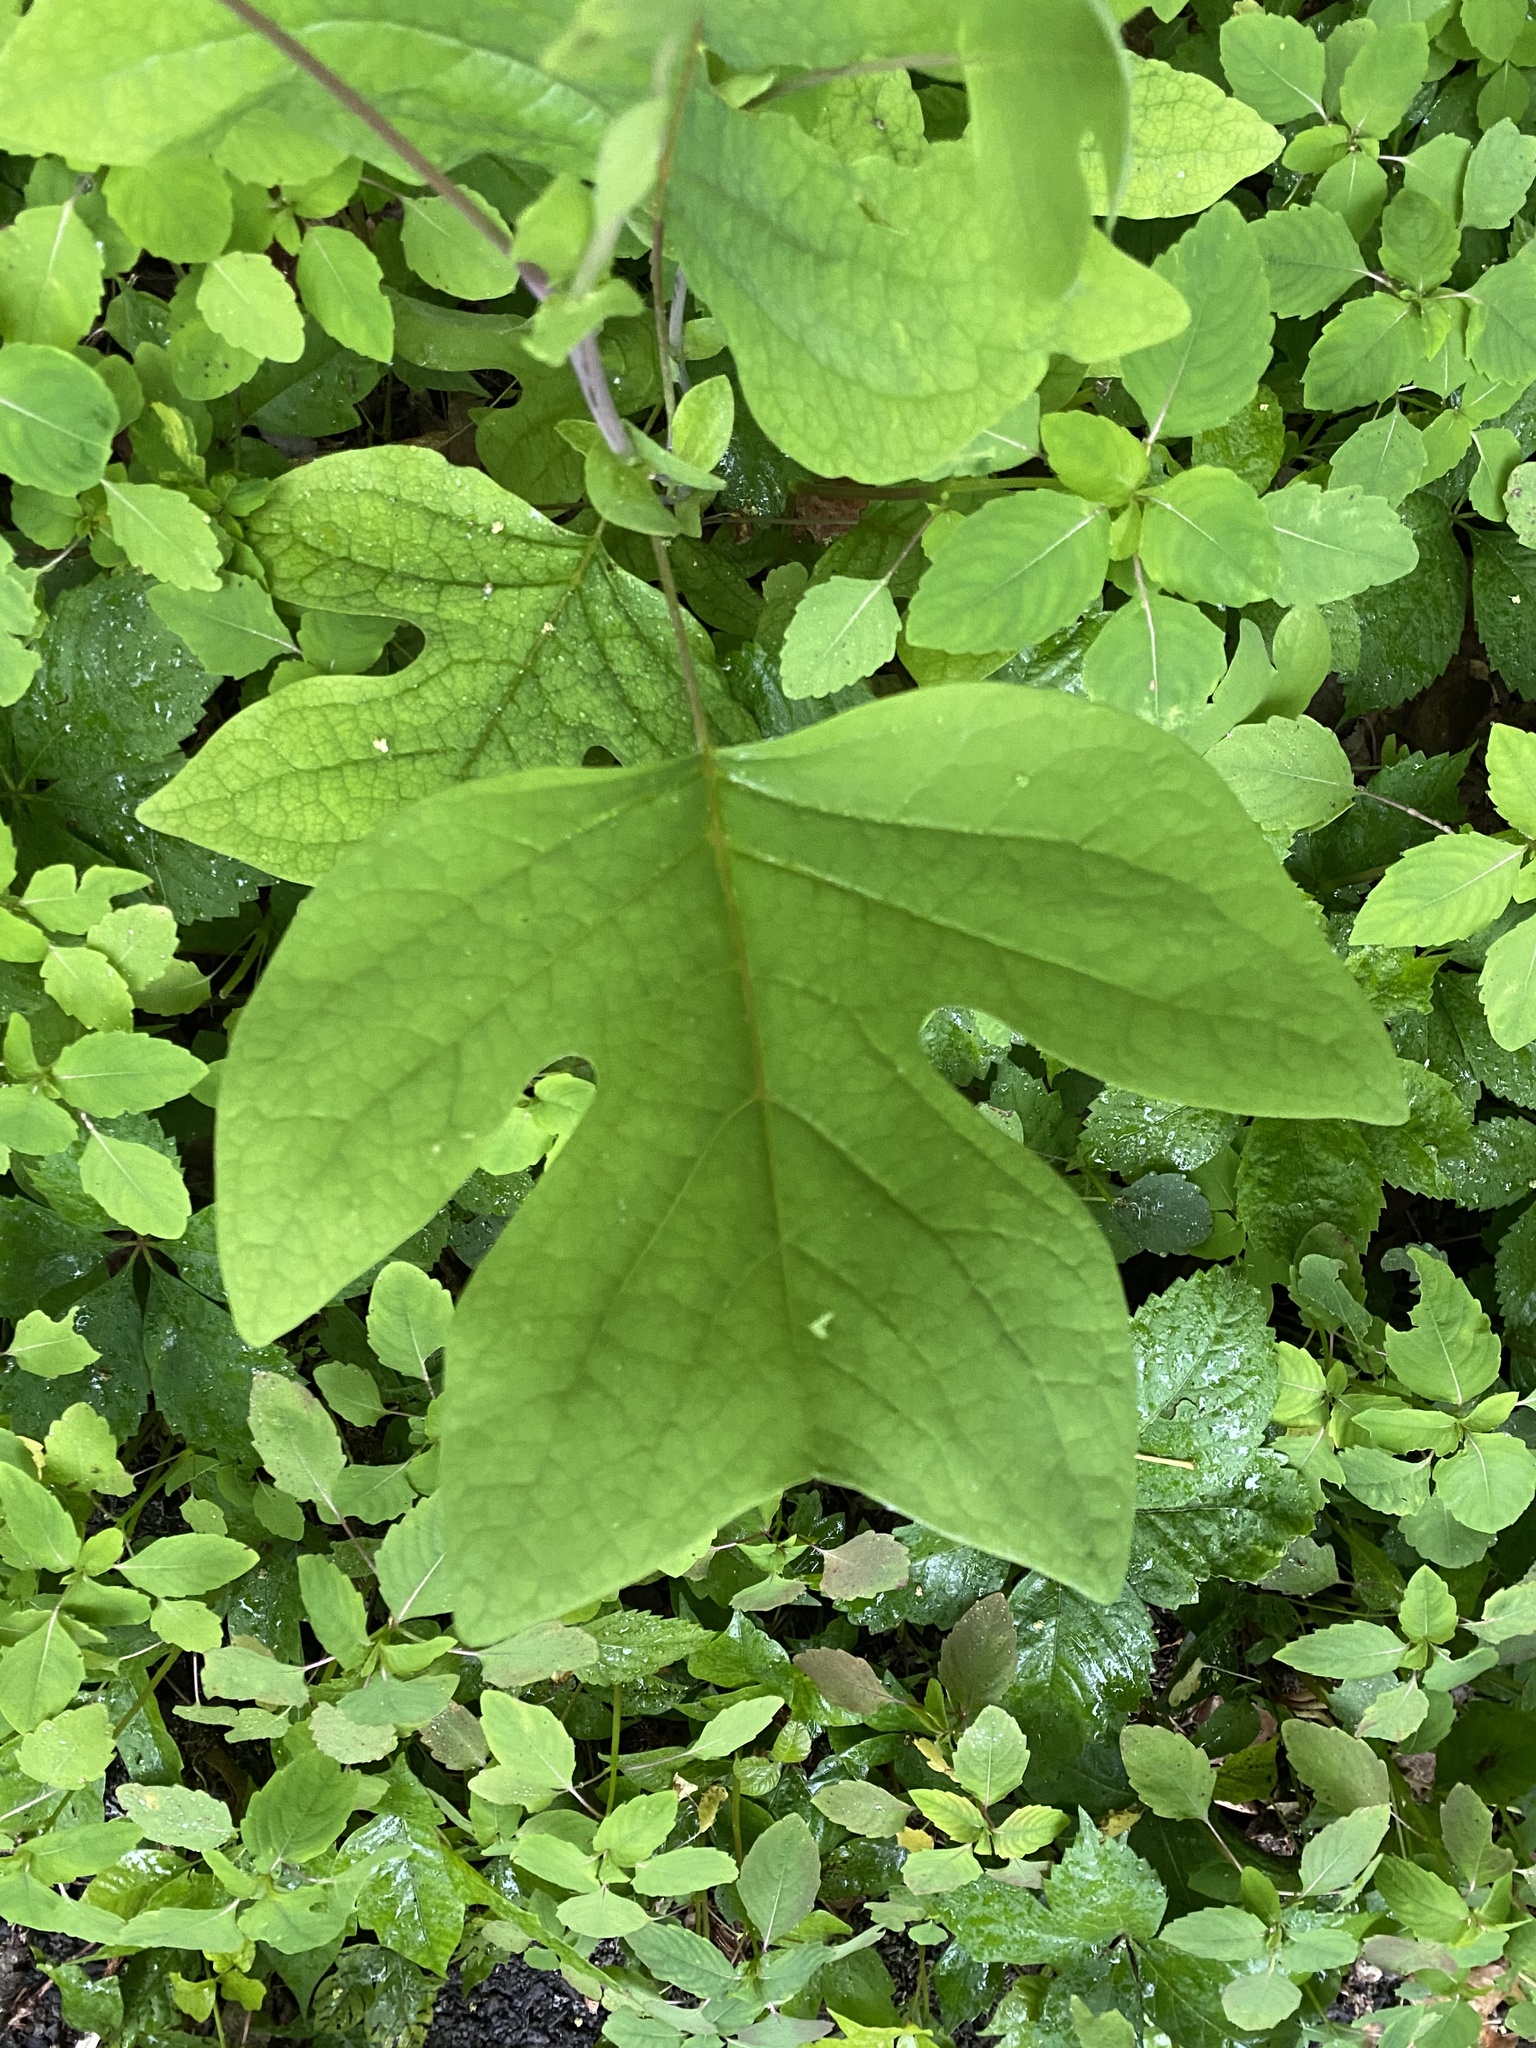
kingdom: Plantae
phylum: Tracheophyta
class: Magnoliopsida
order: Magnoliales
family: Magnoliaceae
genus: Liriodendron
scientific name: Liriodendron tulipifera
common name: Tulip tree
